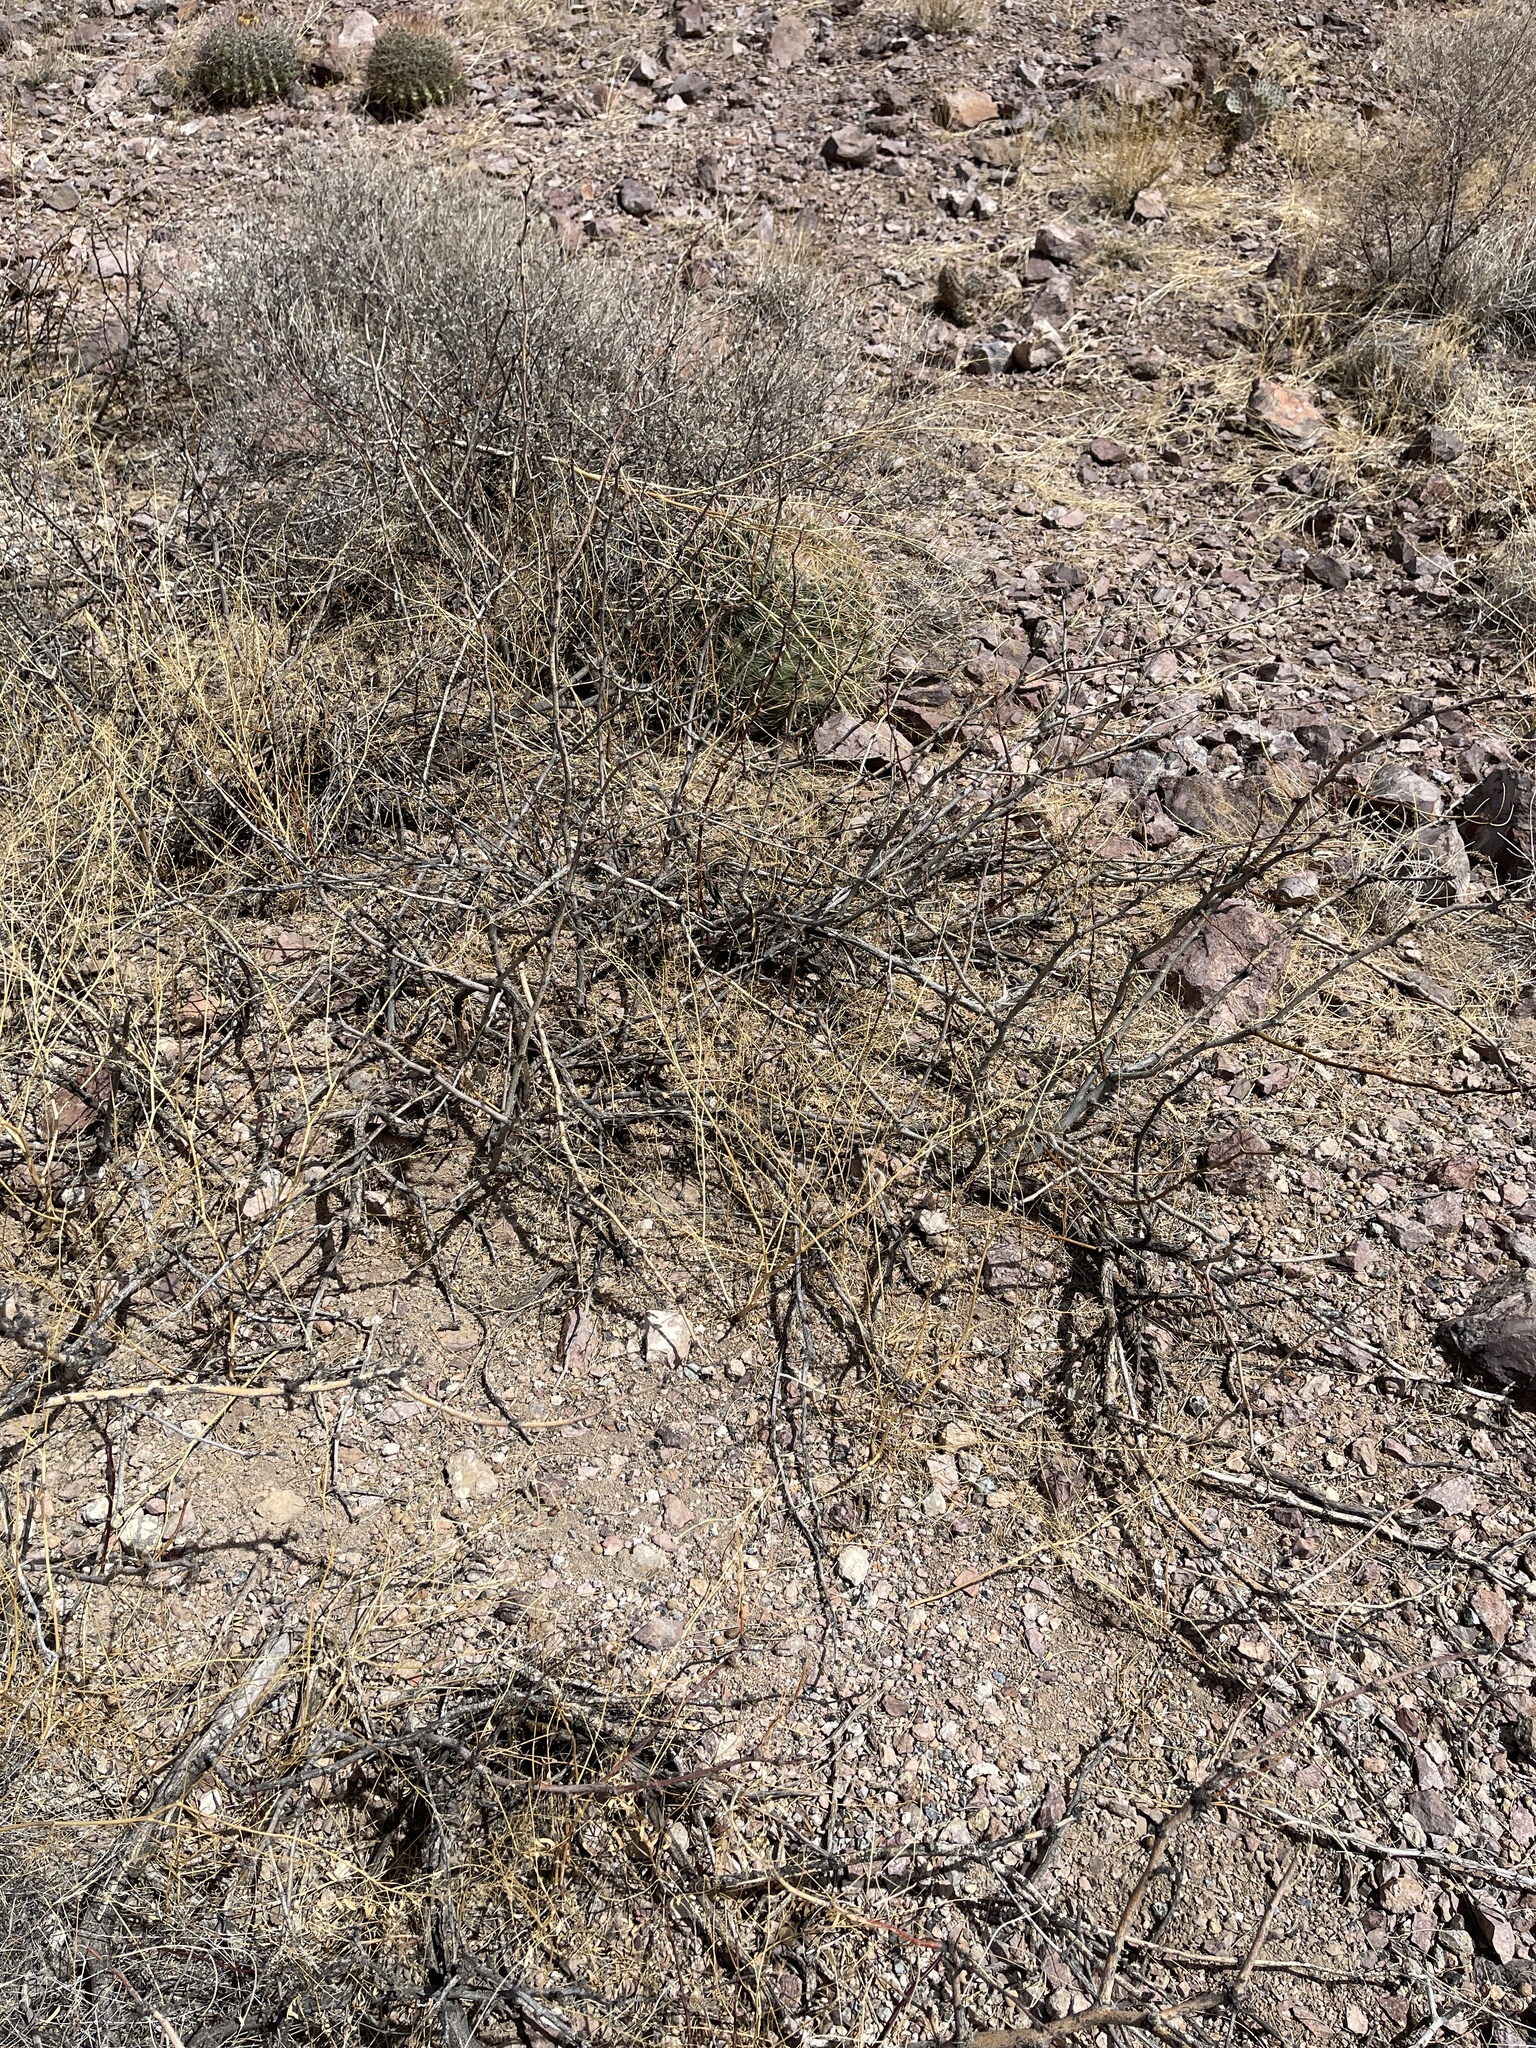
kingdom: Plantae
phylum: Tracheophyta
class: Magnoliopsida
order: Fabales
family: Fabaceae
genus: Prosopis
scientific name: Prosopis glandulosa
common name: Honey mesquite
